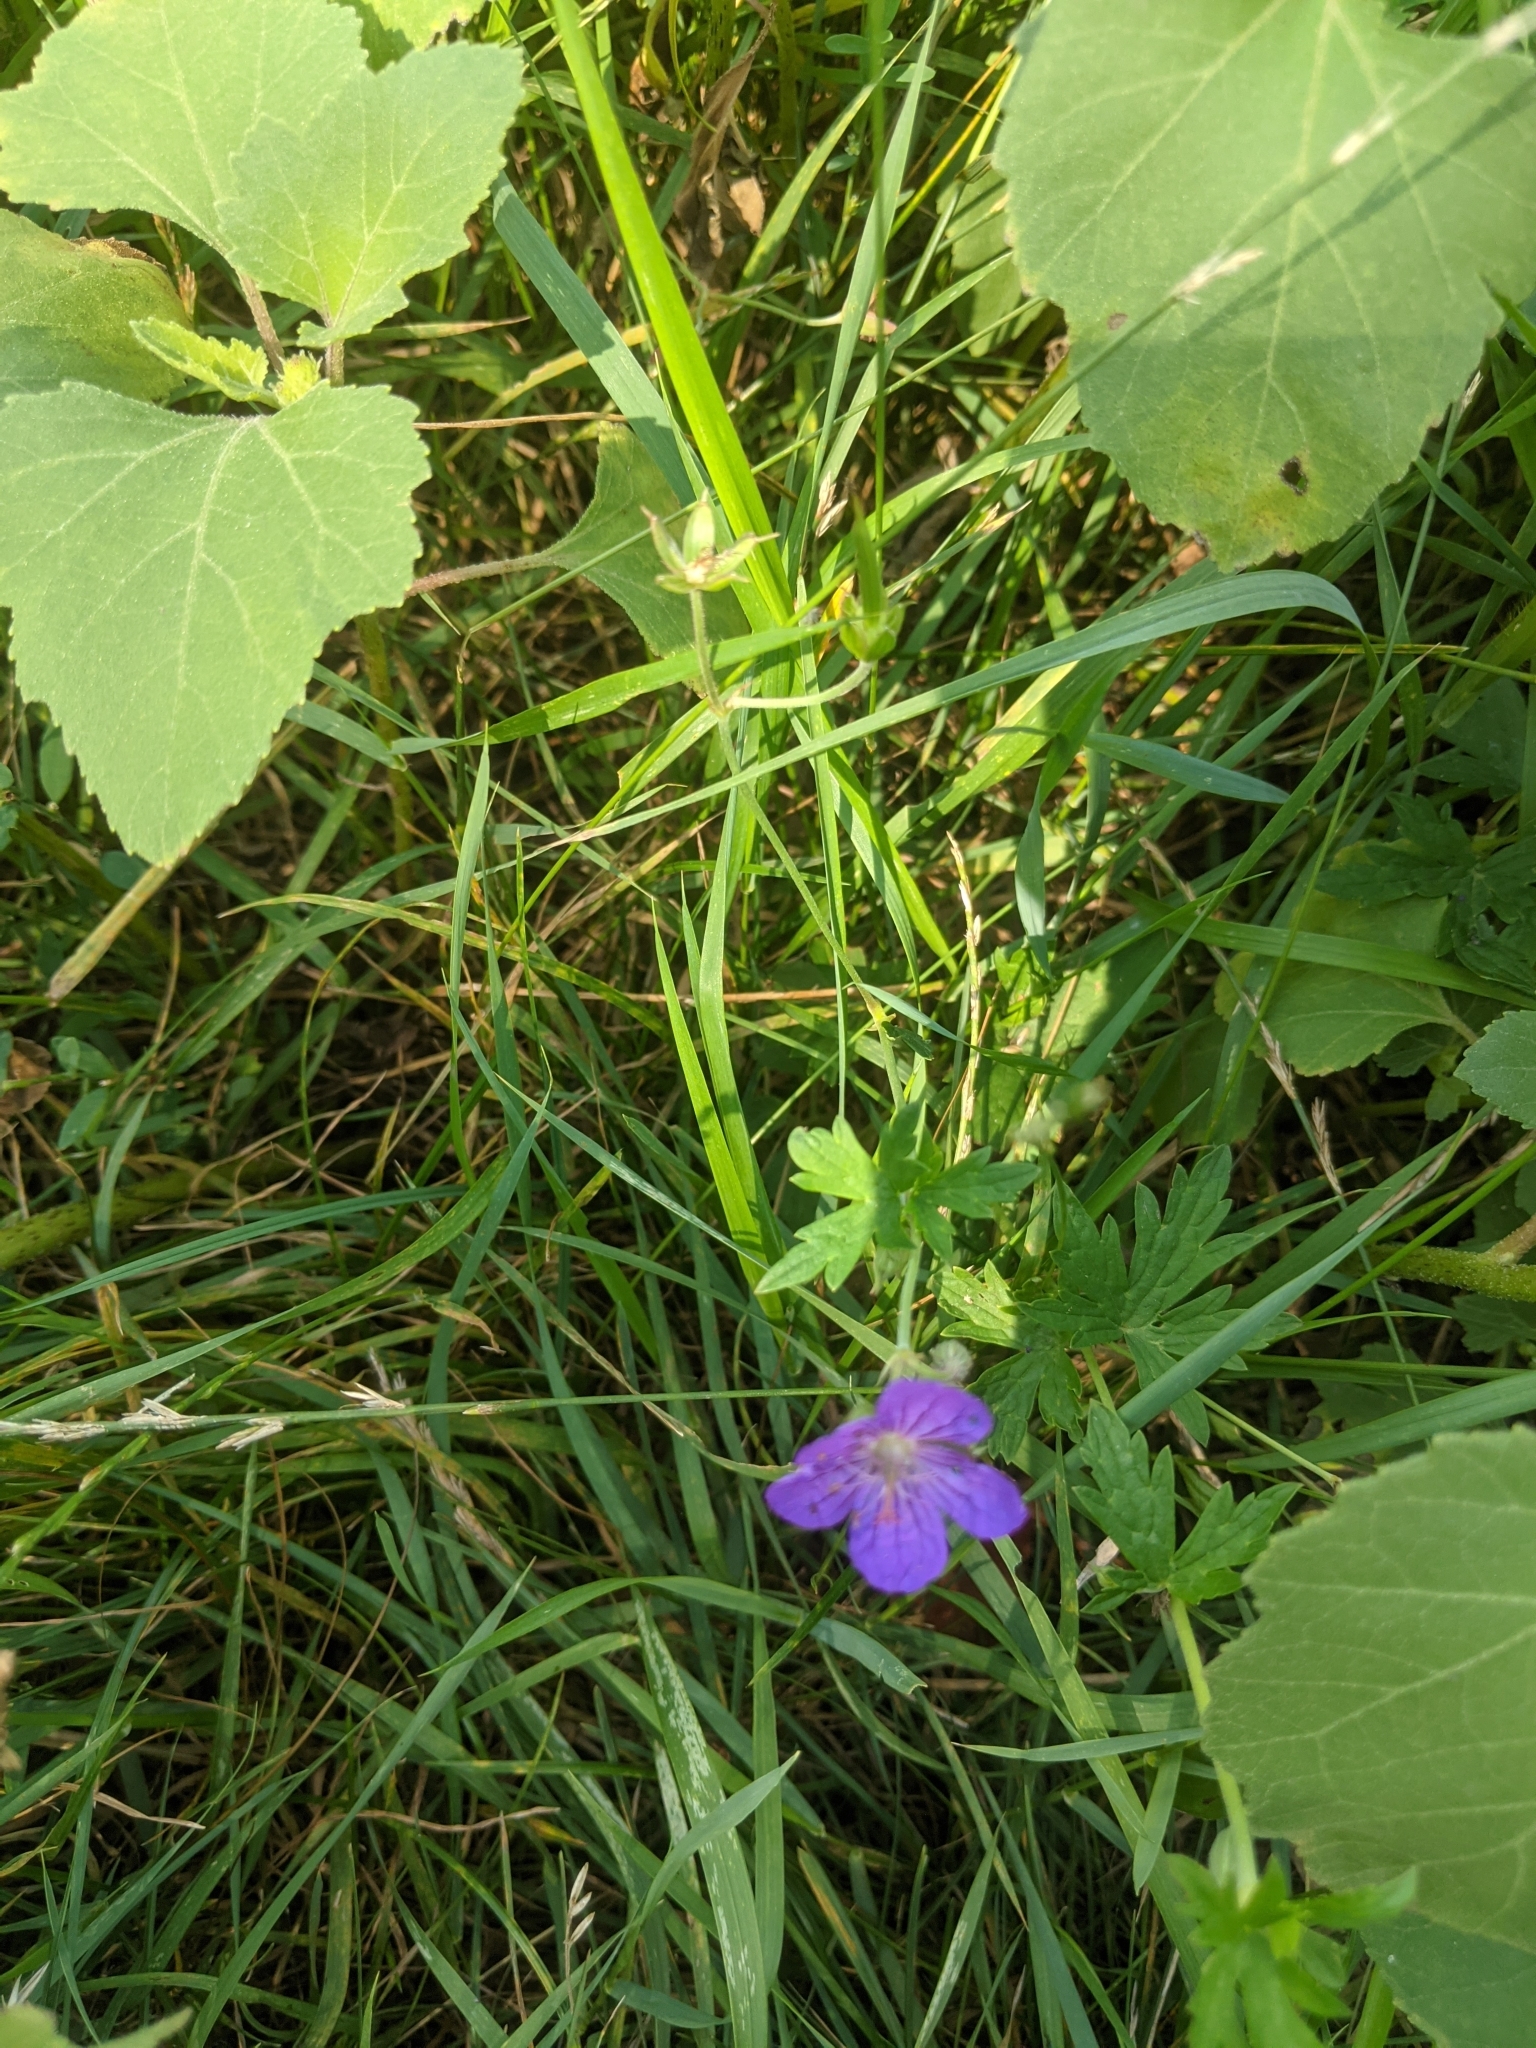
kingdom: Plantae
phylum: Tracheophyta
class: Magnoliopsida
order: Geraniales
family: Geraniaceae
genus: Geranium
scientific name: Geranium palustre
